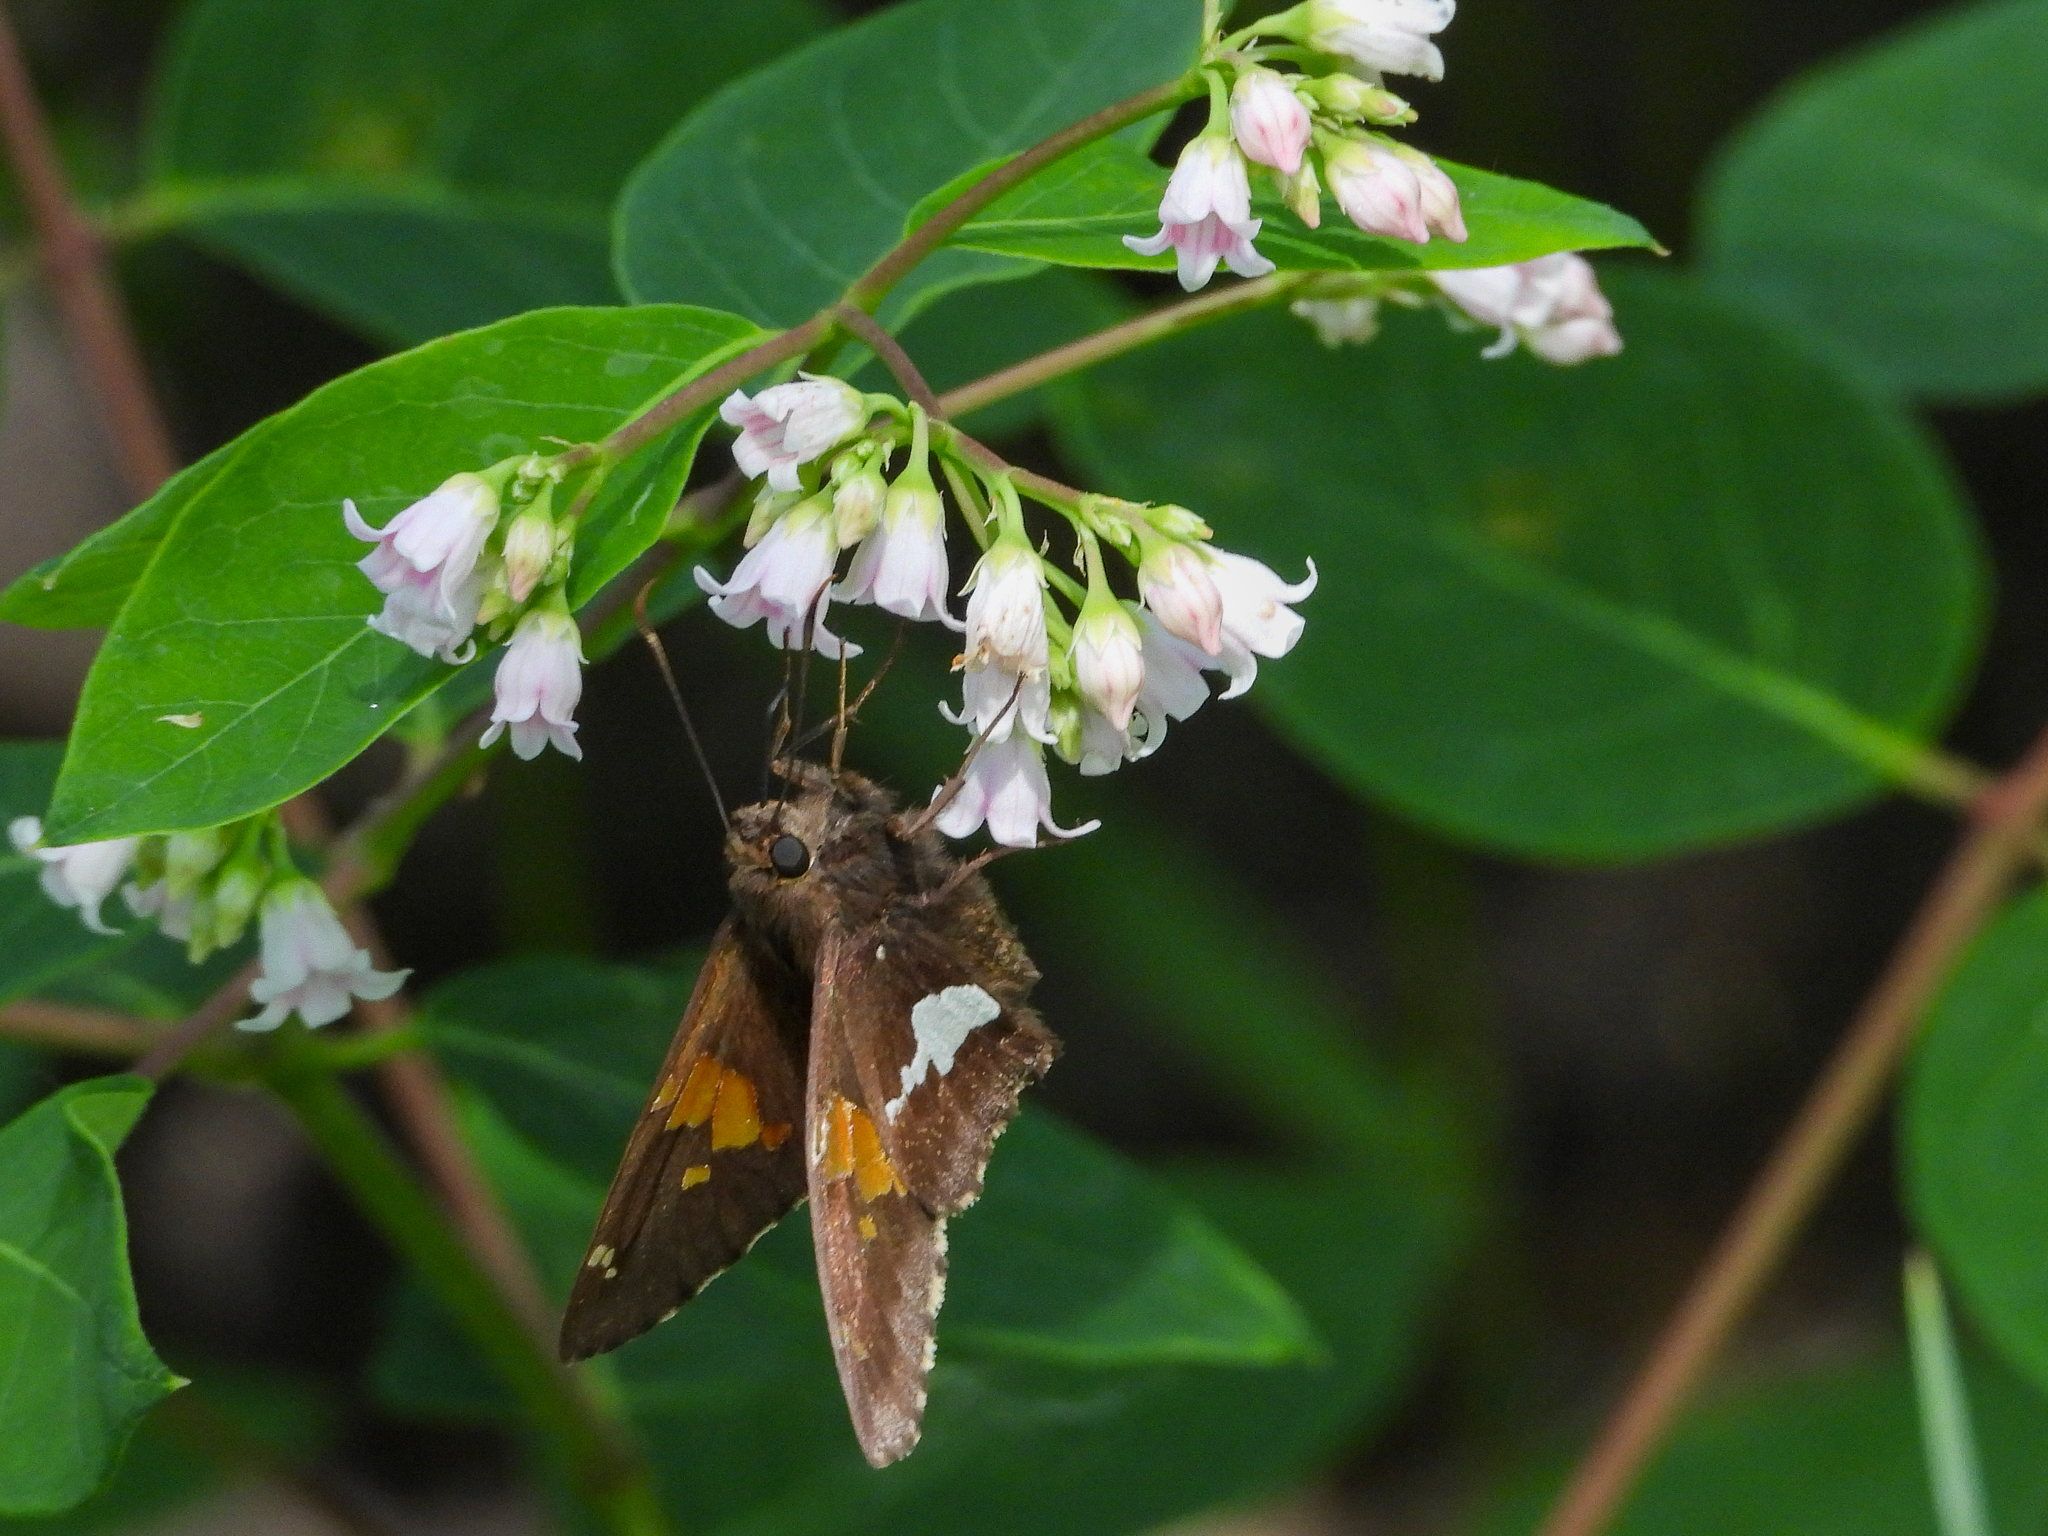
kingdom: Animalia
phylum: Arthropoda
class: Insecta
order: Lepidoptera
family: Hesperiidae
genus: Epargyreus
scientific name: Epargyreus clarus
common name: Silver-spotted skipper
